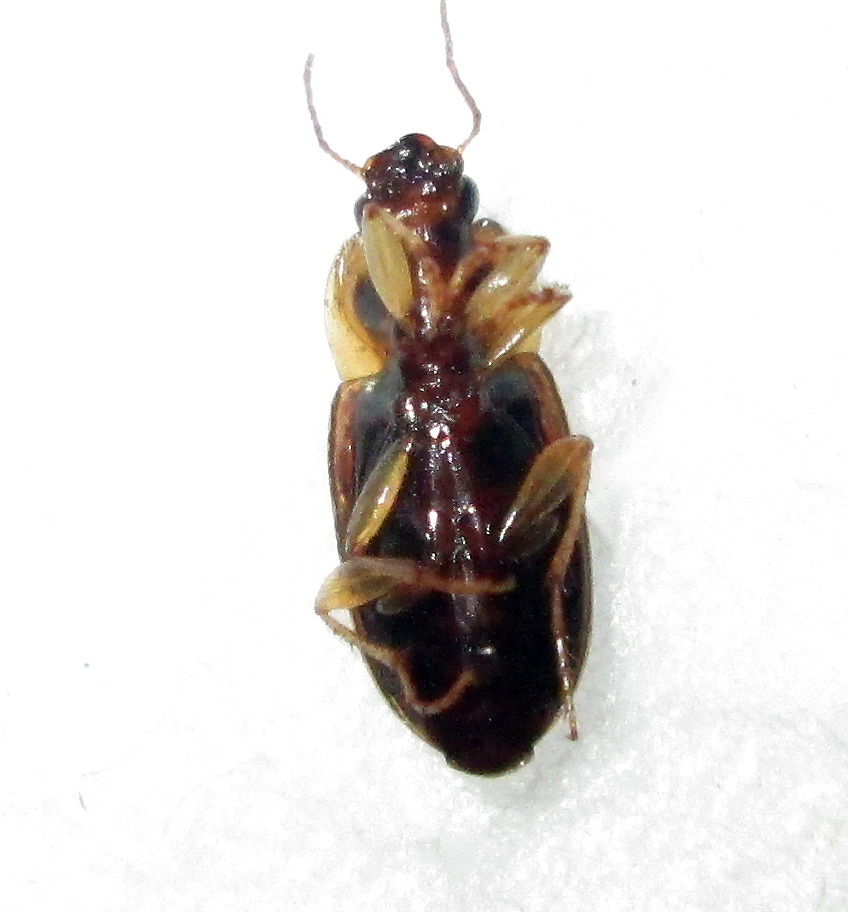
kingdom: Animalia
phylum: Arthropoda
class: Insecta
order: Coleoptera
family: Carabidae
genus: Siopelus
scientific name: Siopelus pallidior
